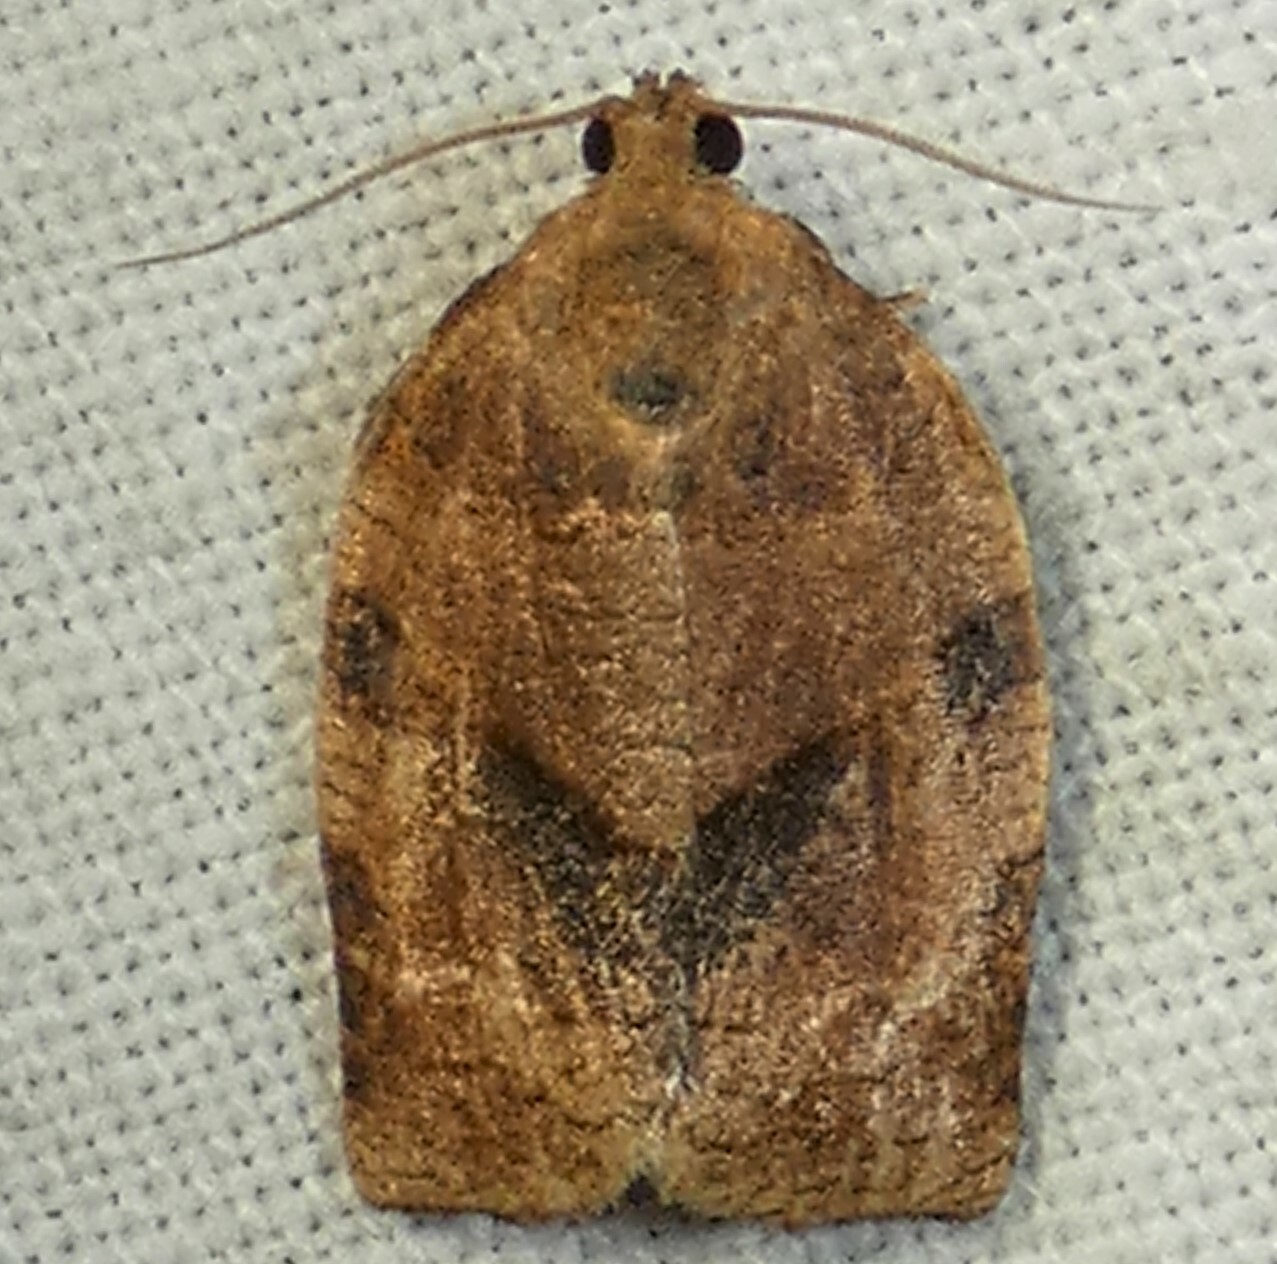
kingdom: Animalia
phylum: Arthropoda
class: Insecta
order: Lepidoptera
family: Tortricidae
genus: Choristoneura
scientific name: Choristoneura rosaceana
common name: Oblique-banded leafroller moth
